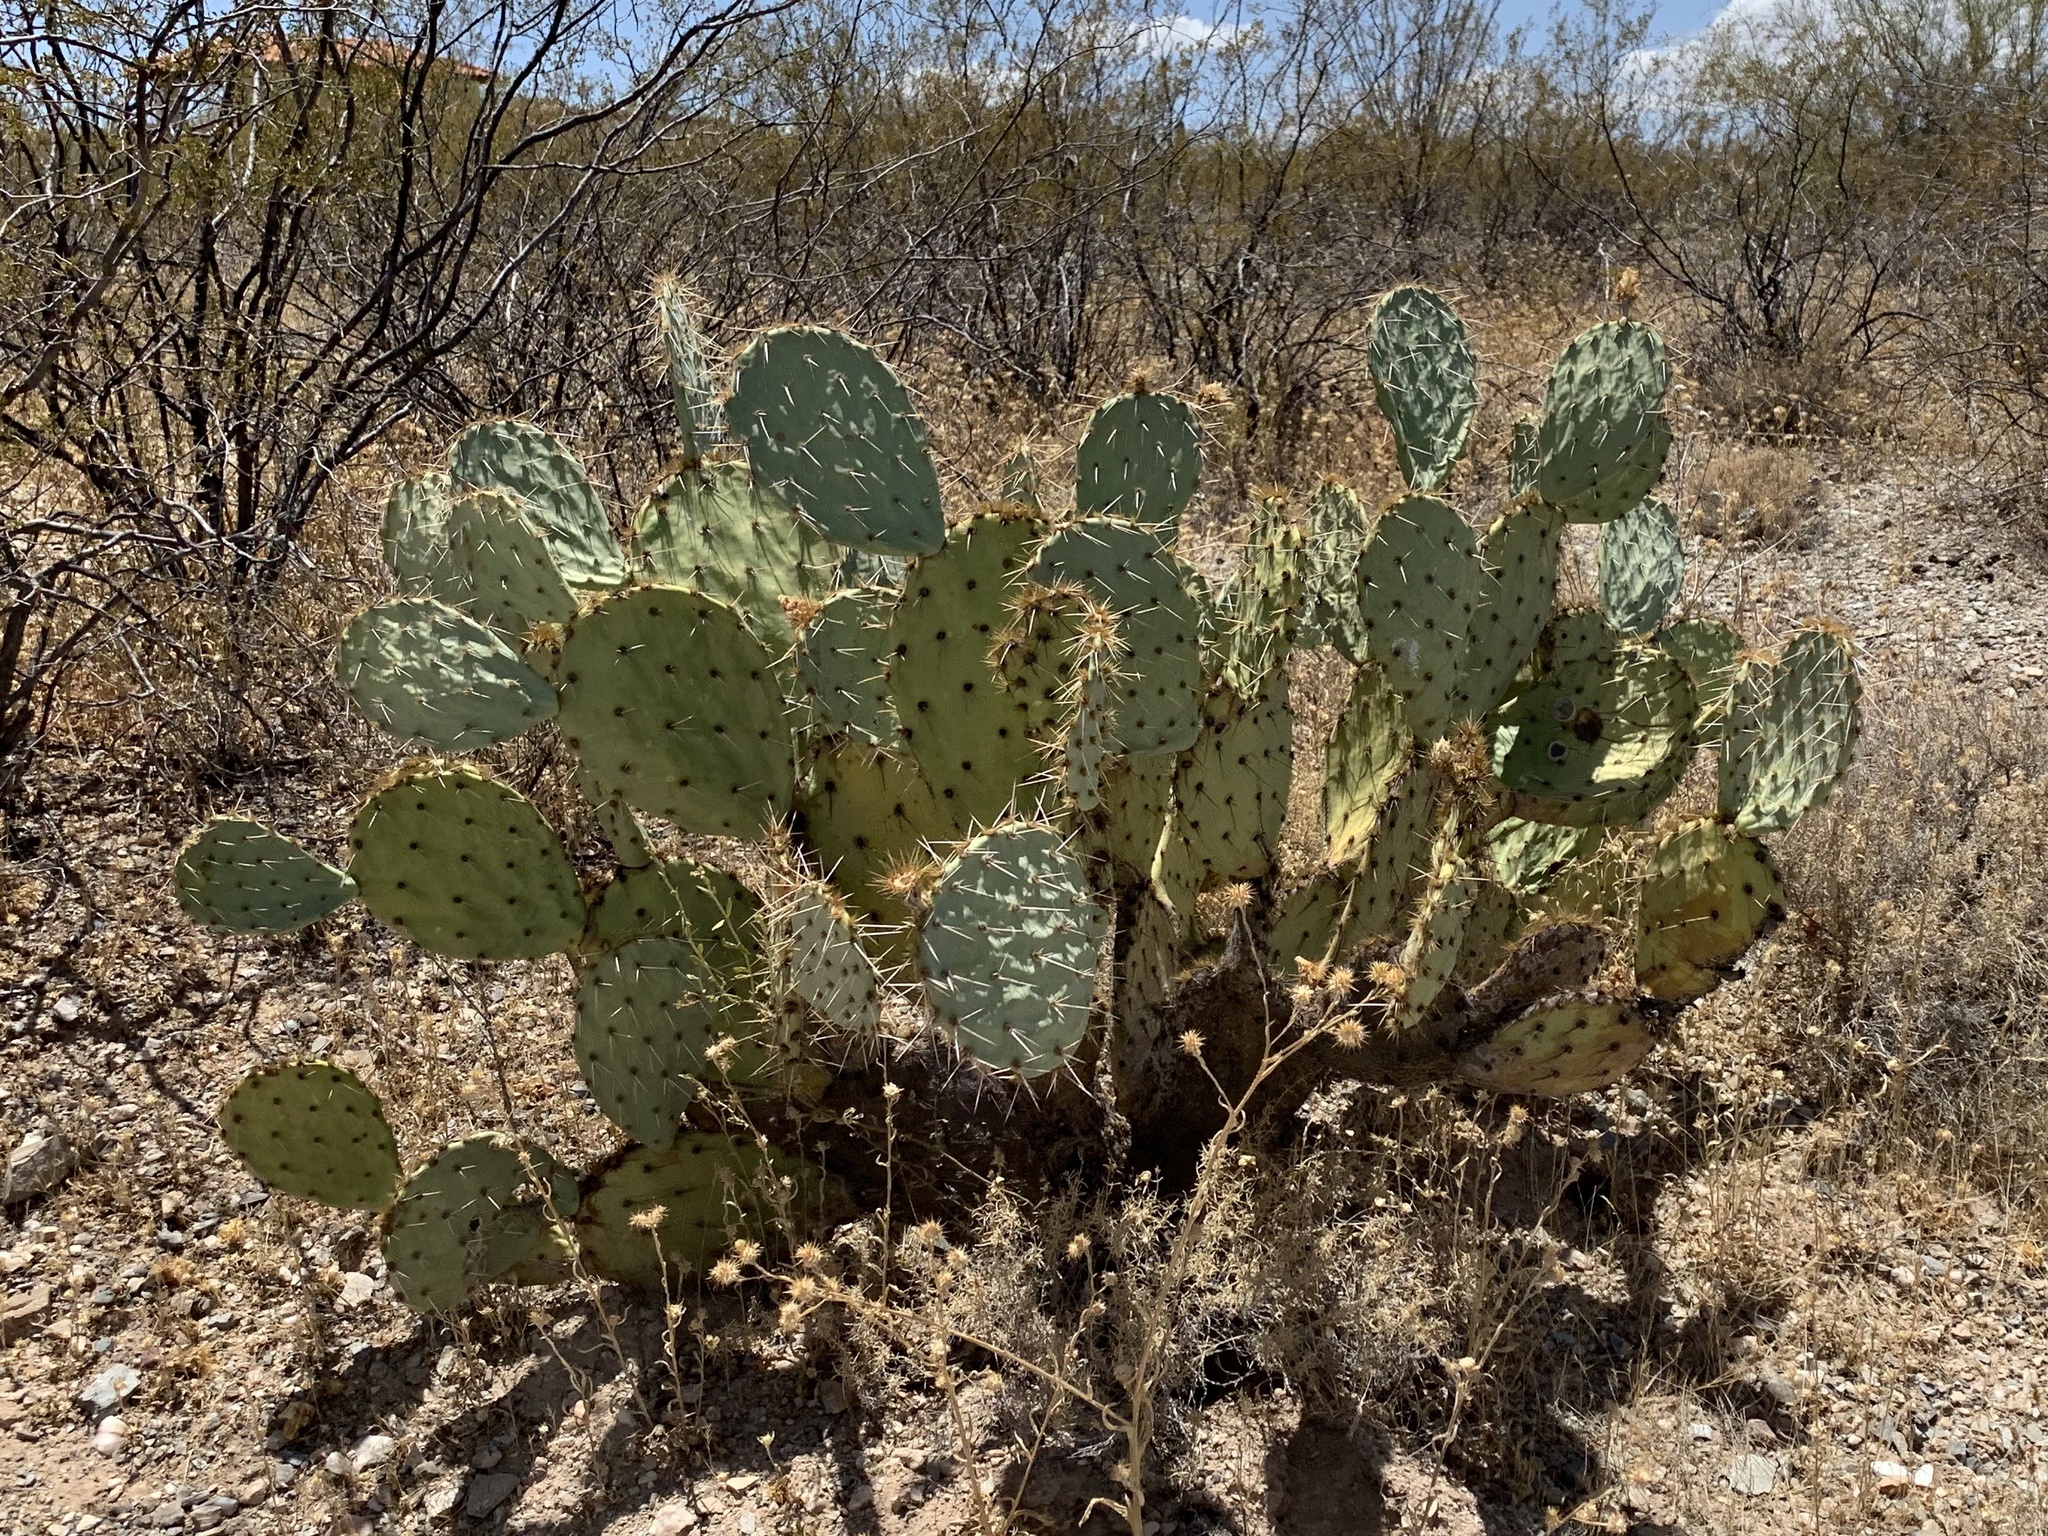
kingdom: Plantae
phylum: Tracheophyta
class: Magnoliopsida
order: Caryophyllales
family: Cactaceae
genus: Opuntia
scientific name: Opuntia engelmannii
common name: Cactus-apple
